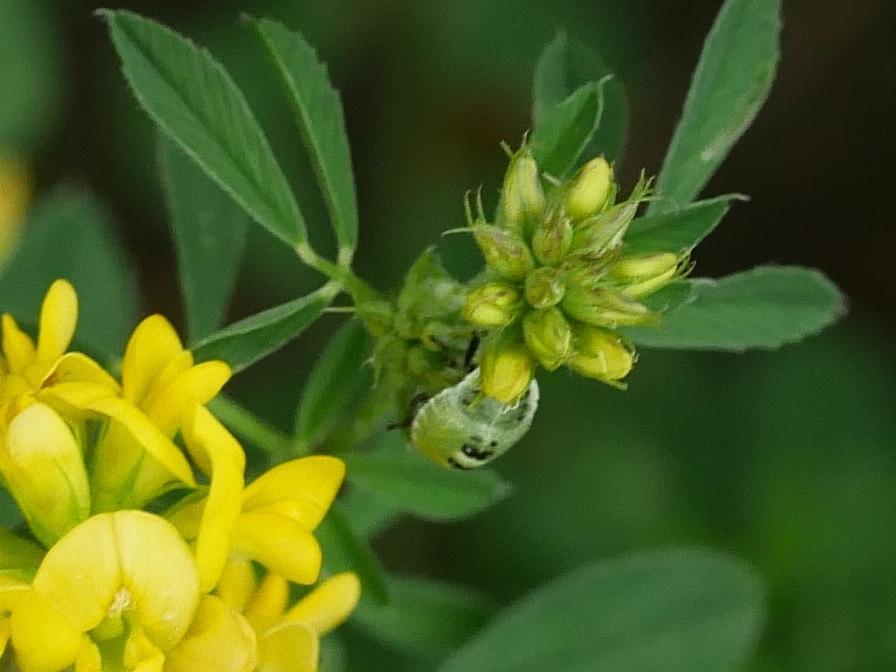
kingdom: Animalia
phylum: Arthropoda
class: Insecta
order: Hemiptera
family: Pentatomidae
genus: Palomena
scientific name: Palomena prasina
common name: Green shieldbug
